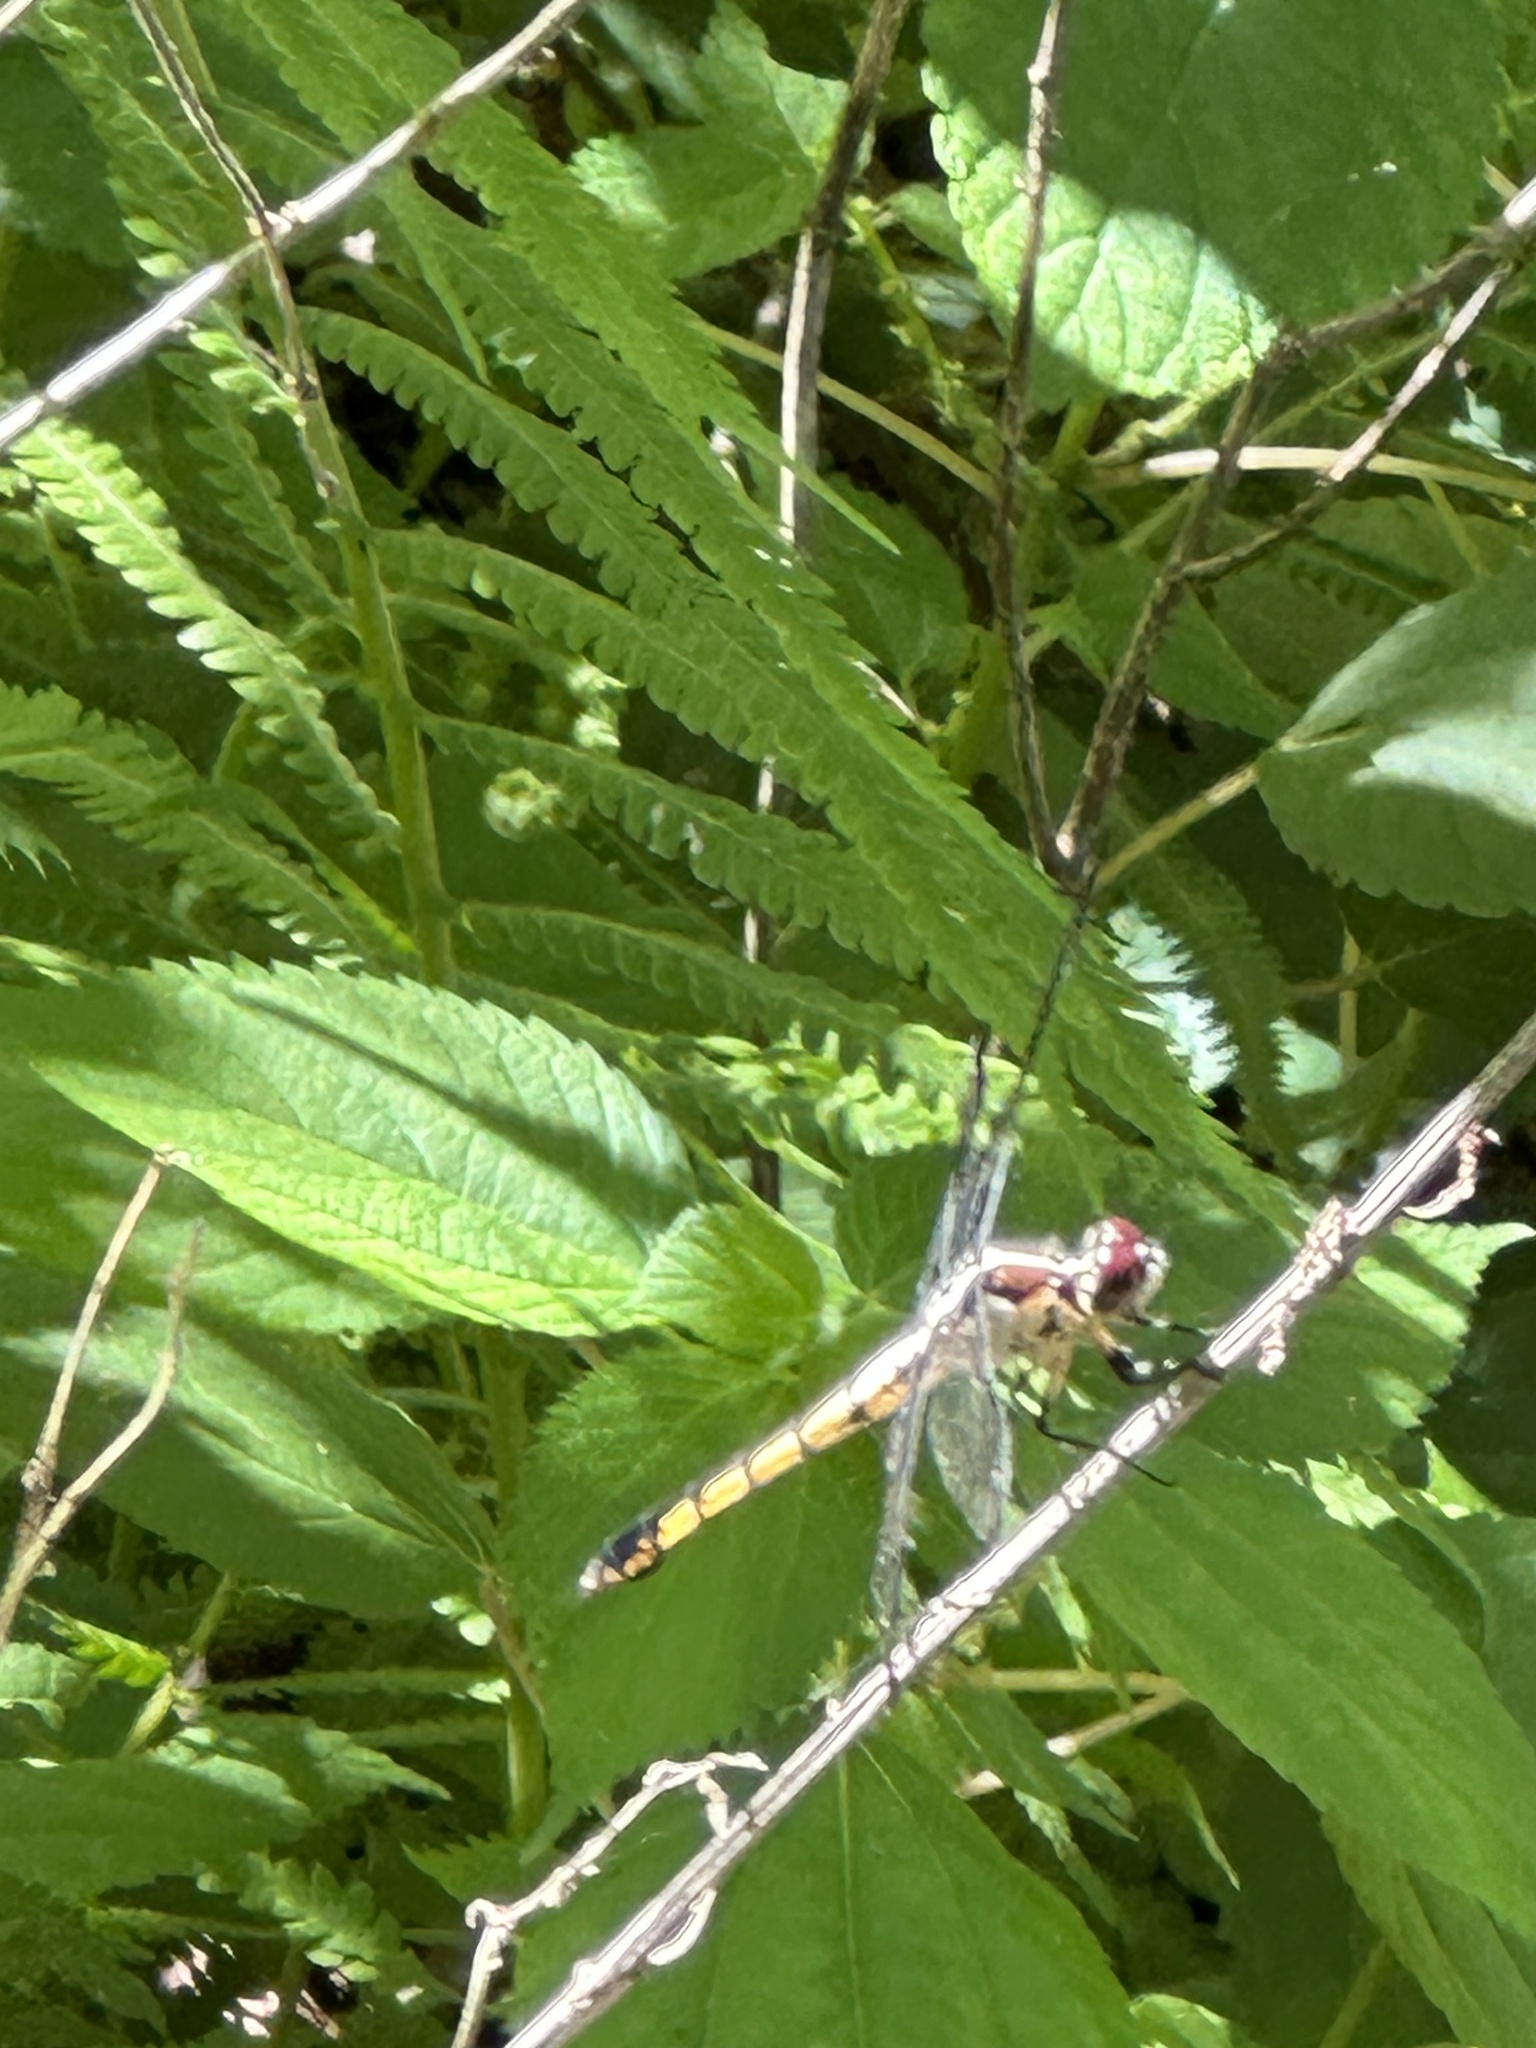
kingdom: Animalia
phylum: Arthropoda
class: Insecta
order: Odonata
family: Libellulidae
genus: Libellula
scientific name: Libellula vibrans
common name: Great blue skimmer
